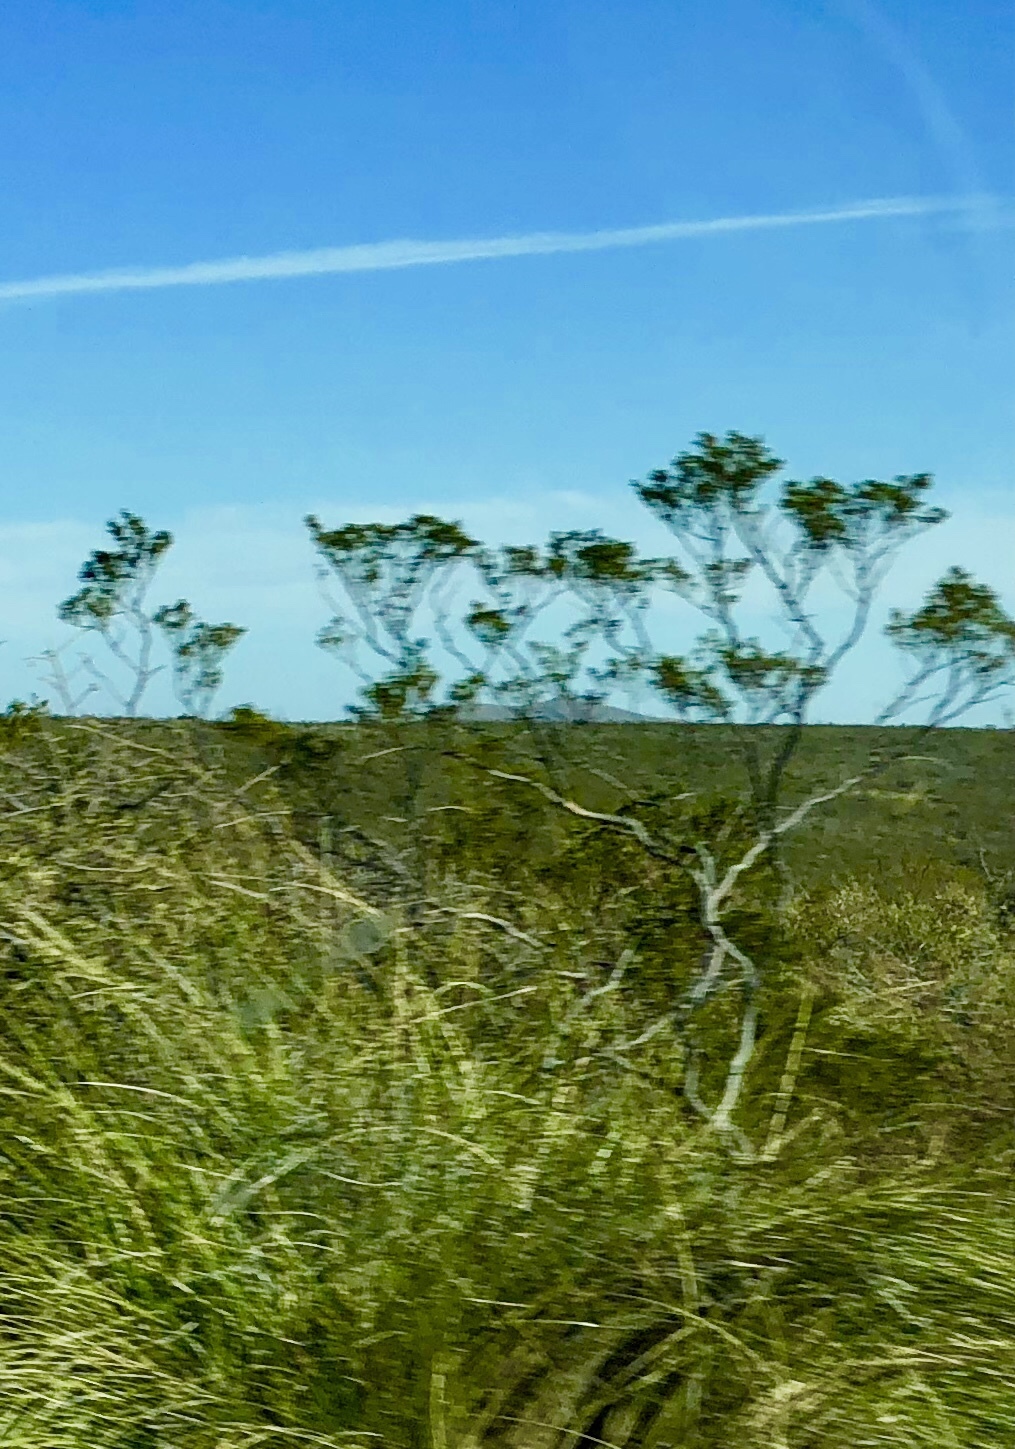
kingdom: Plantae
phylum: Tracheophyta
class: Magnoliopsida
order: Zygophyllales
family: Zygophyllaceae
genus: Larrea
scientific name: Larrea tridentata
